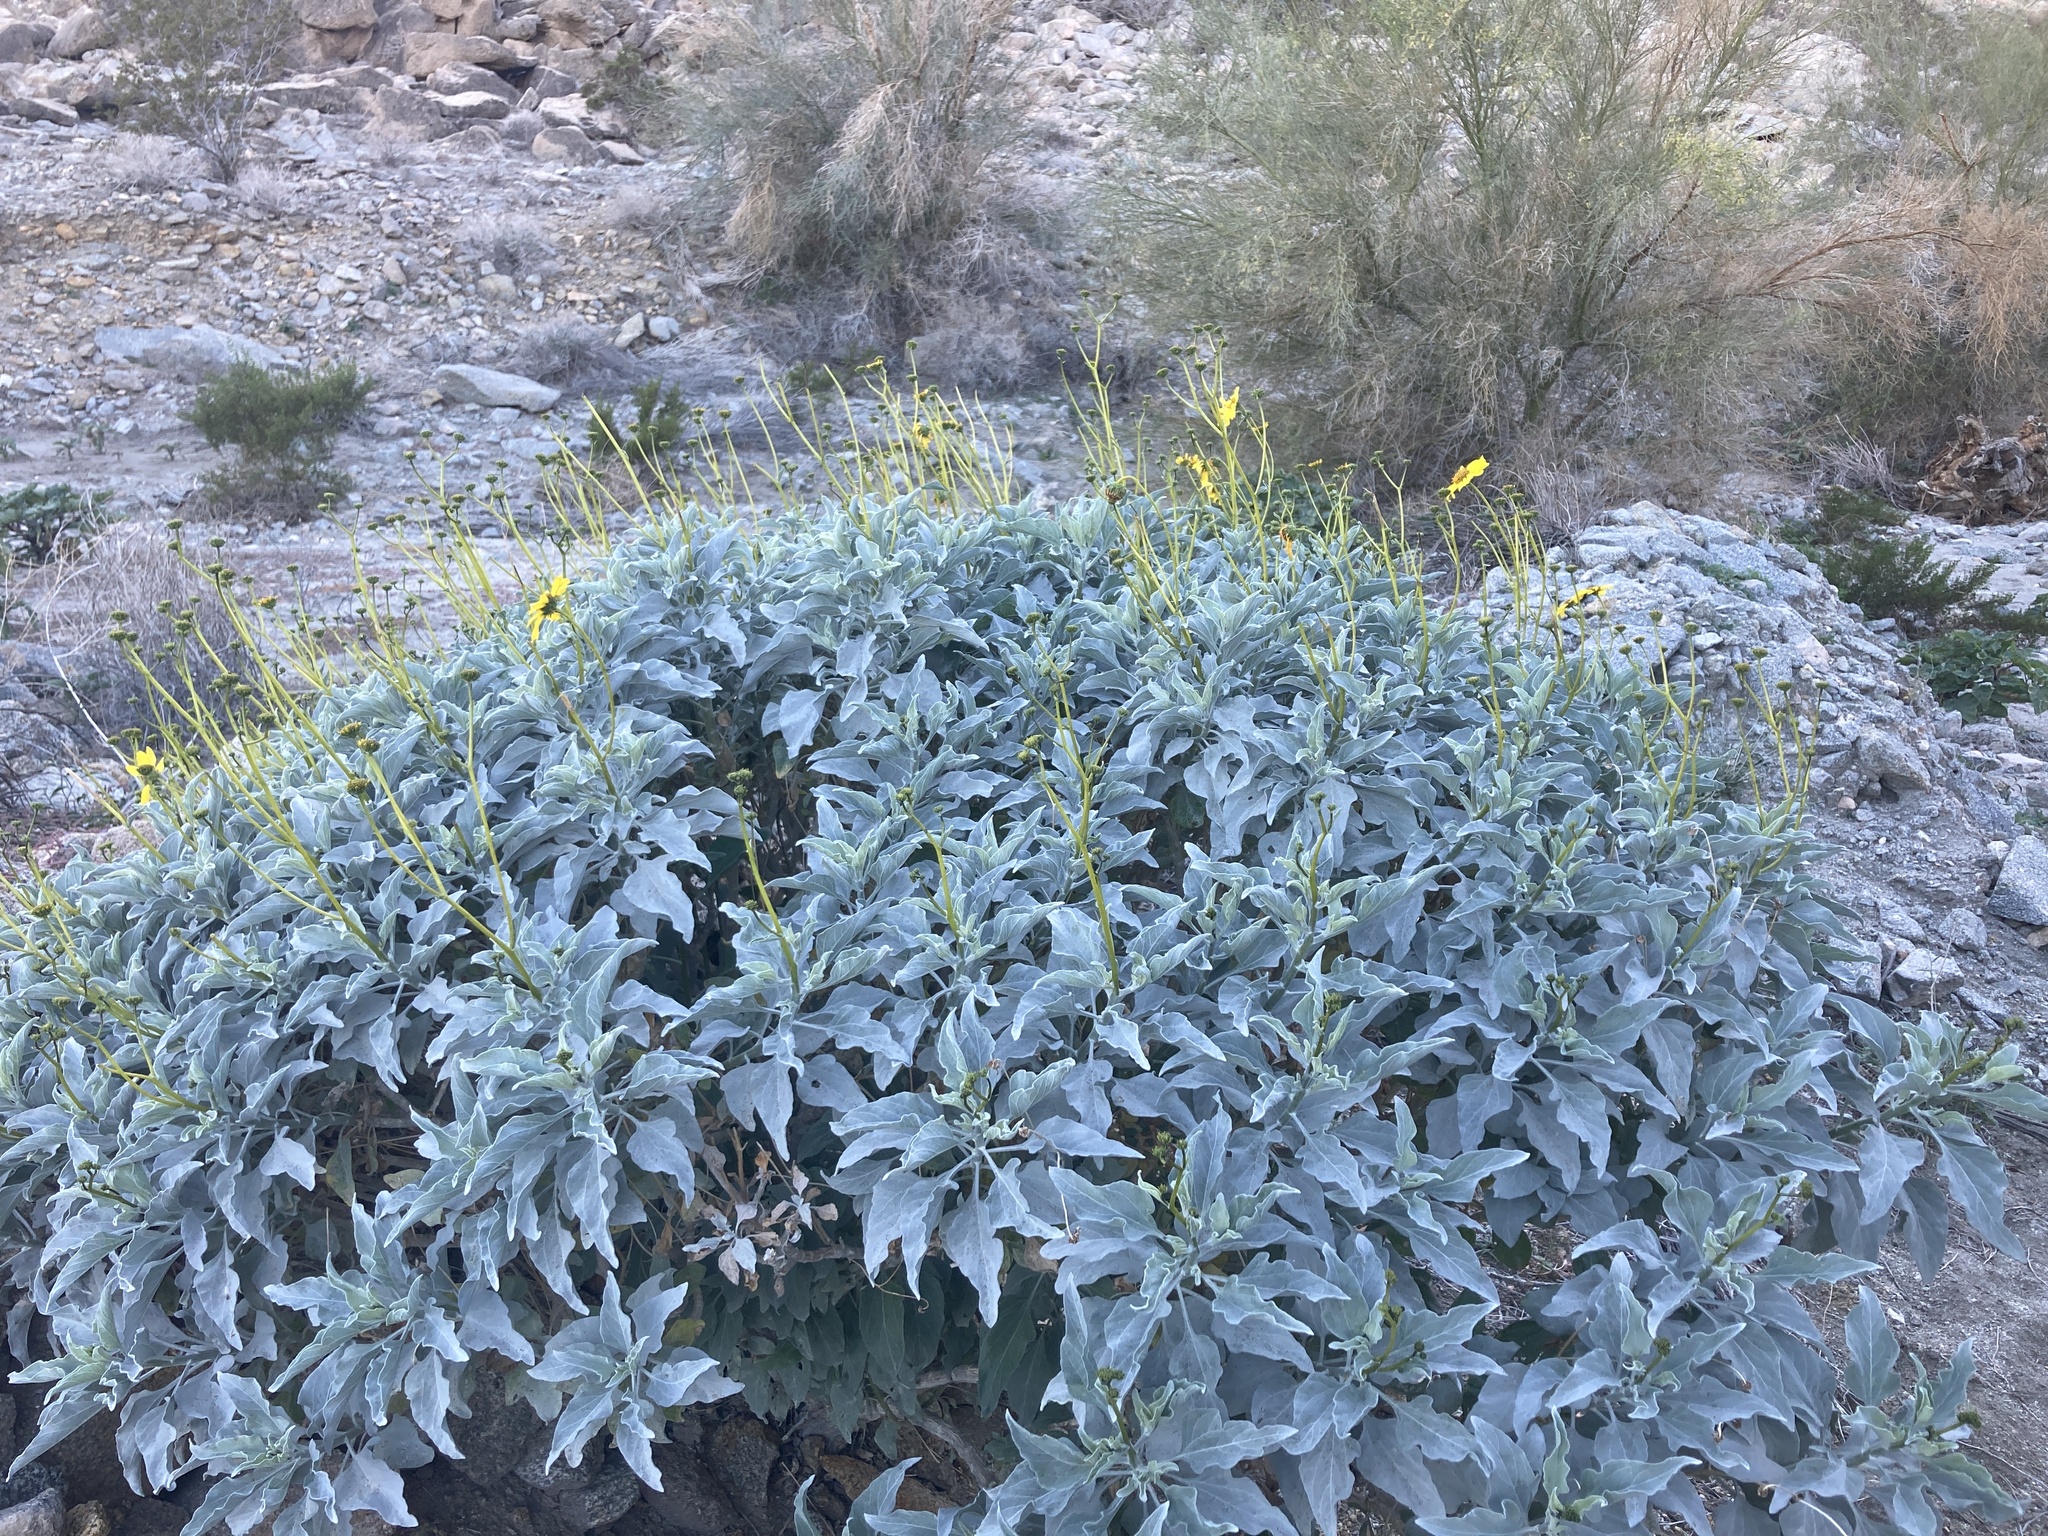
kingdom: Plantae
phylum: Tracheophyta
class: Magnoliopsida
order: Asterales
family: Asteraceae
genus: Encelia
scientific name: Encelia farinosa
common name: Brittlebush
